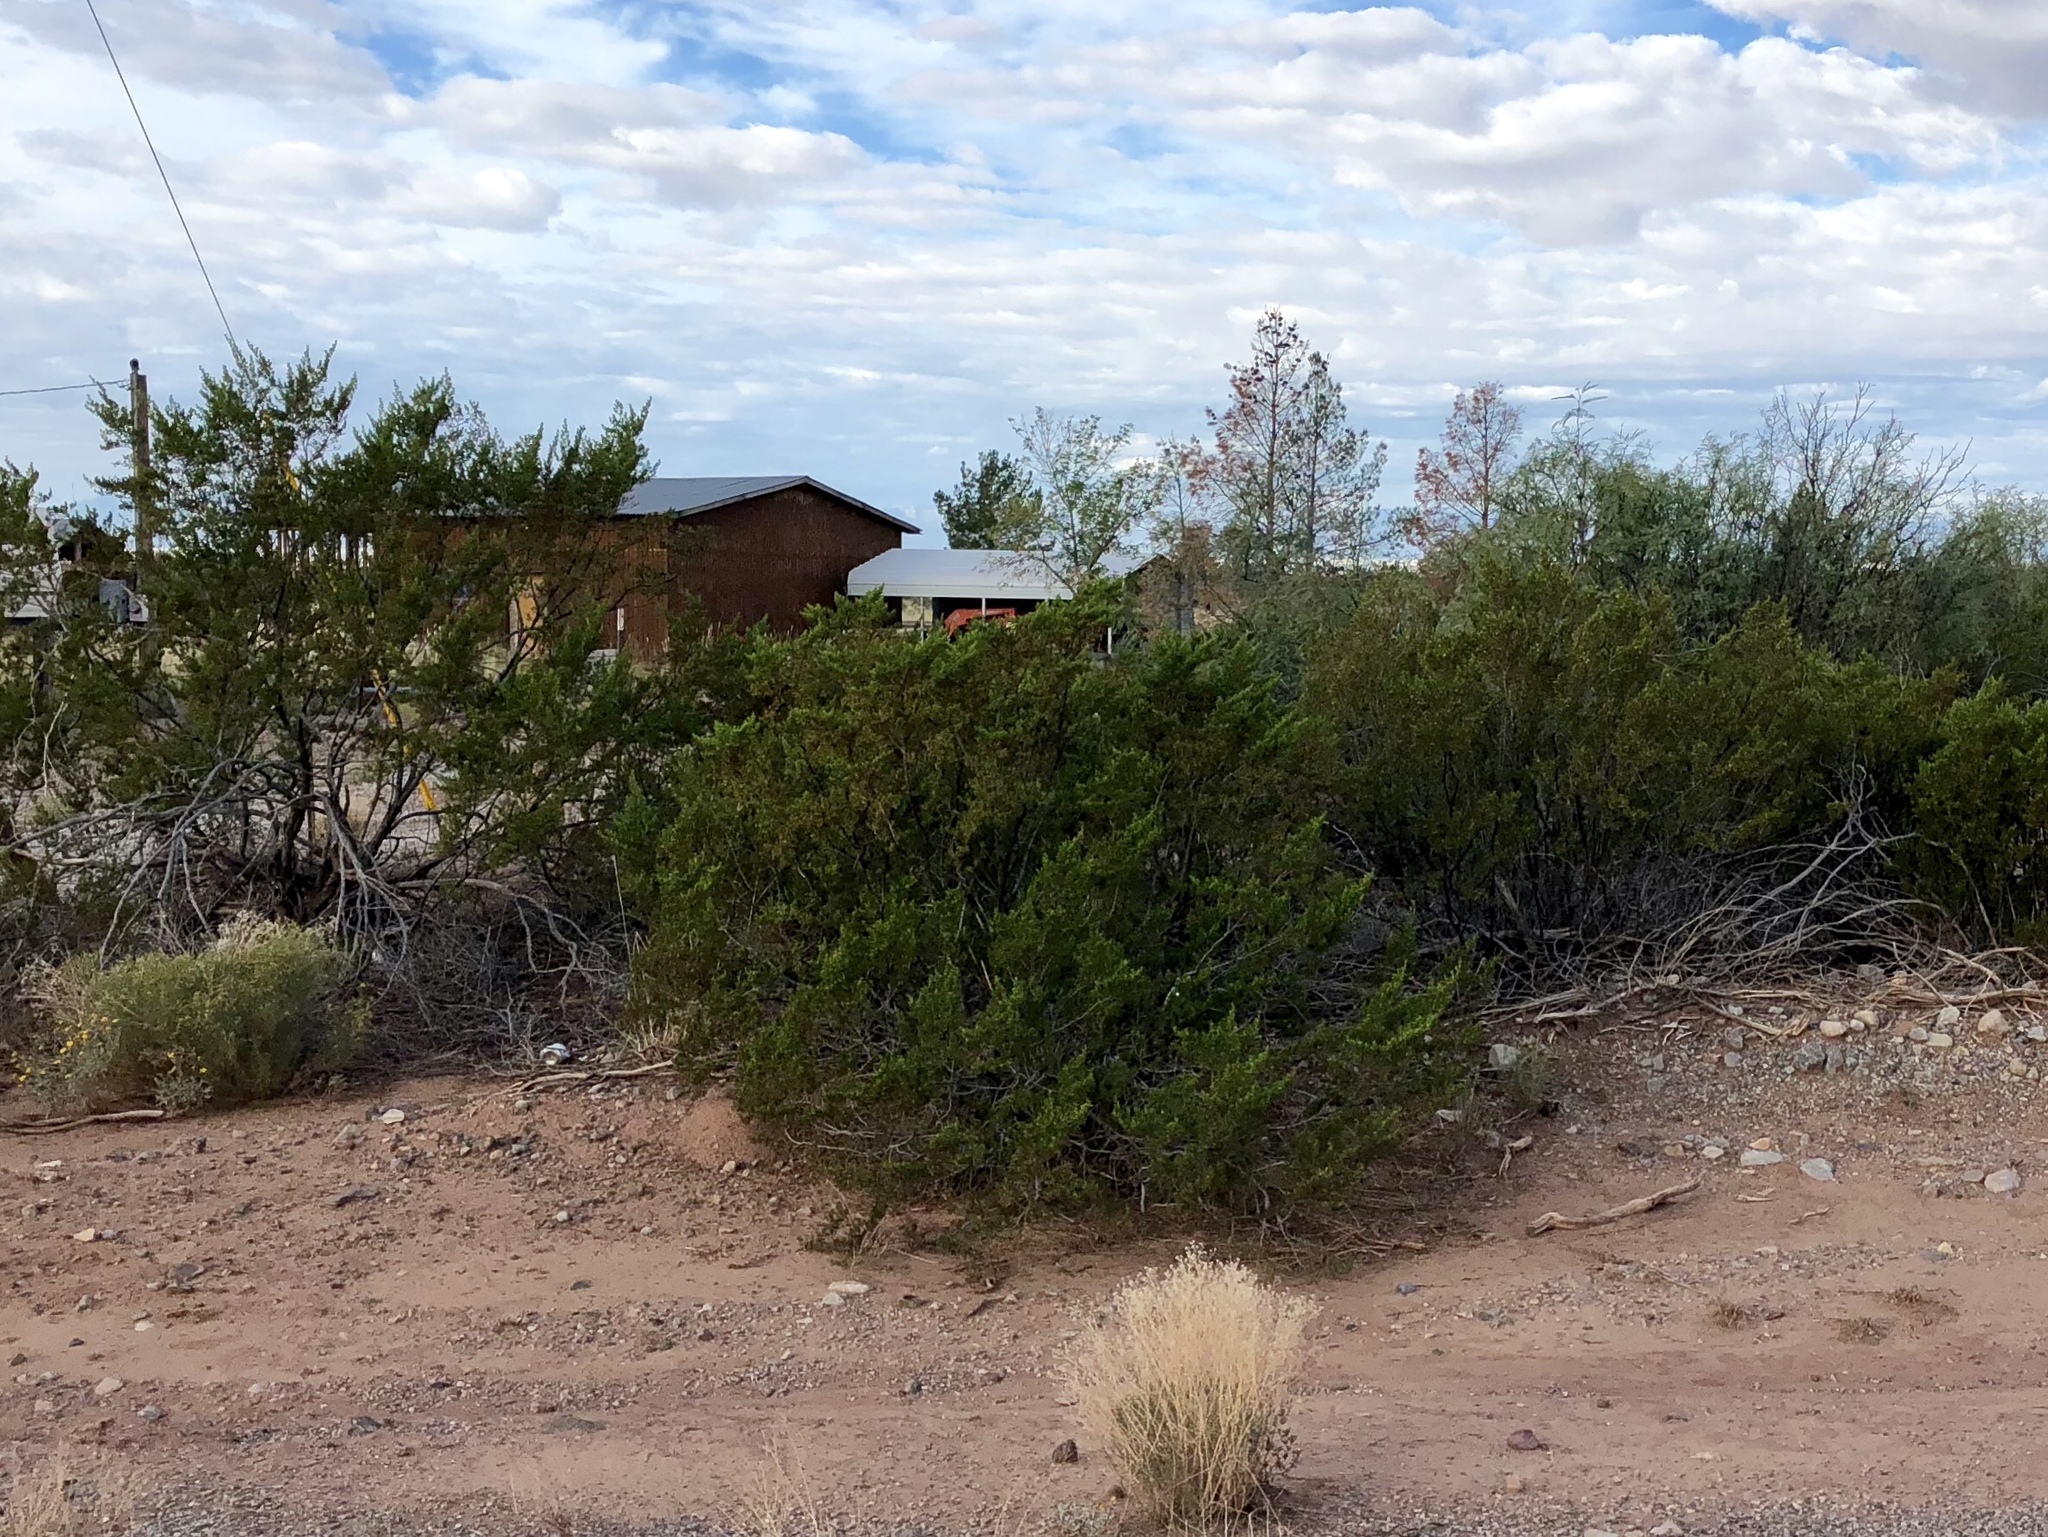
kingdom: Plantae
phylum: Tracheophyta
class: Magnoliopsida
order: Zygophyllales
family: Zygophyllaceae
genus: Larrea
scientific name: Larrea tridentata
